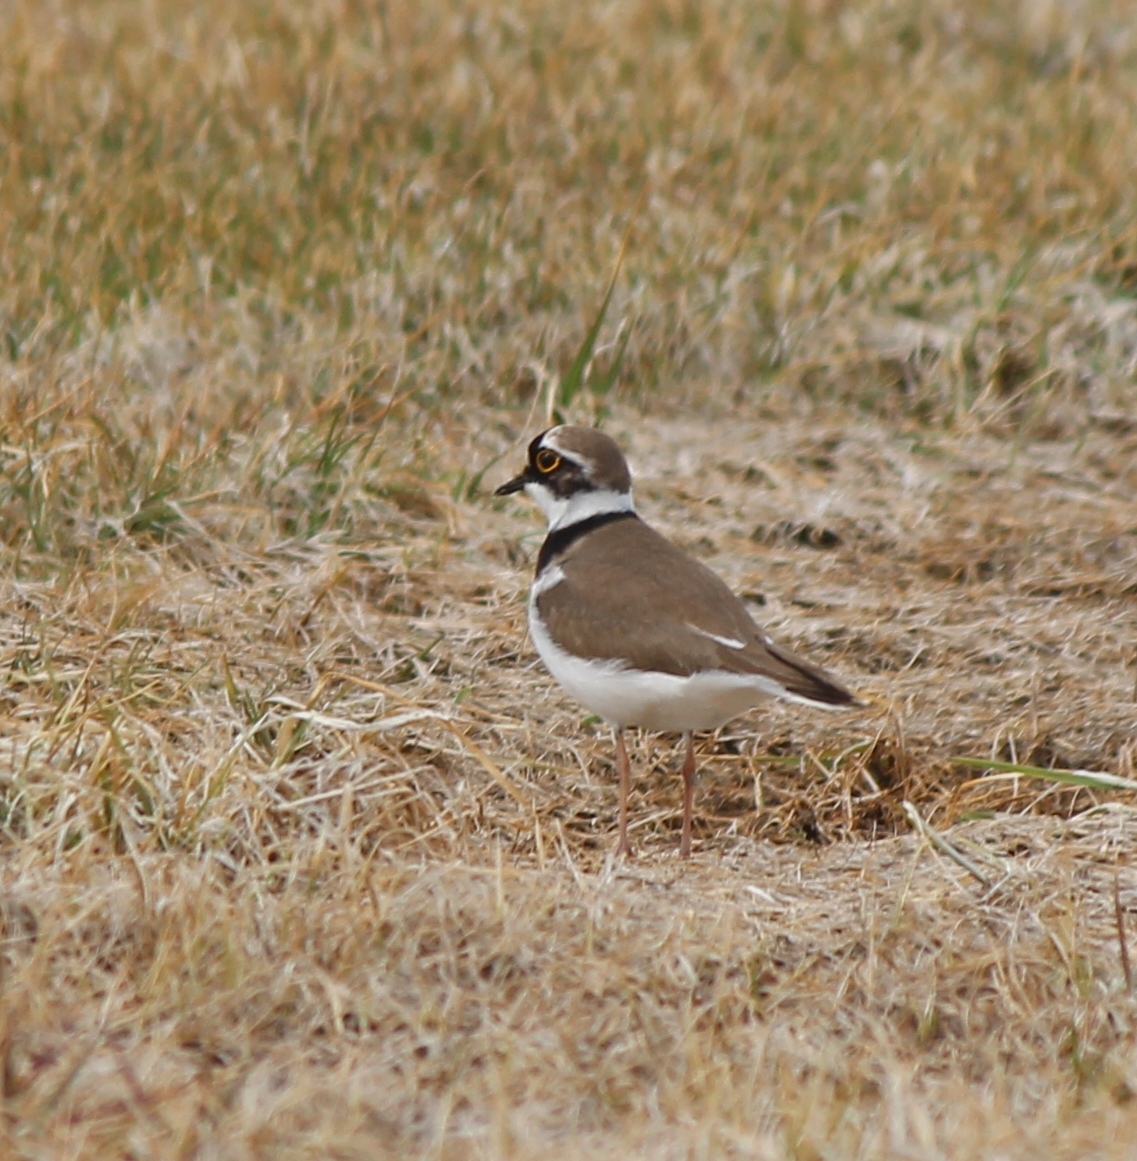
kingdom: Animalia
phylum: Chordata
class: Aves
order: Charadriiformes
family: Charadriidae
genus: Charadrius
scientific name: Charadrius dubius
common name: Little ringed plover
